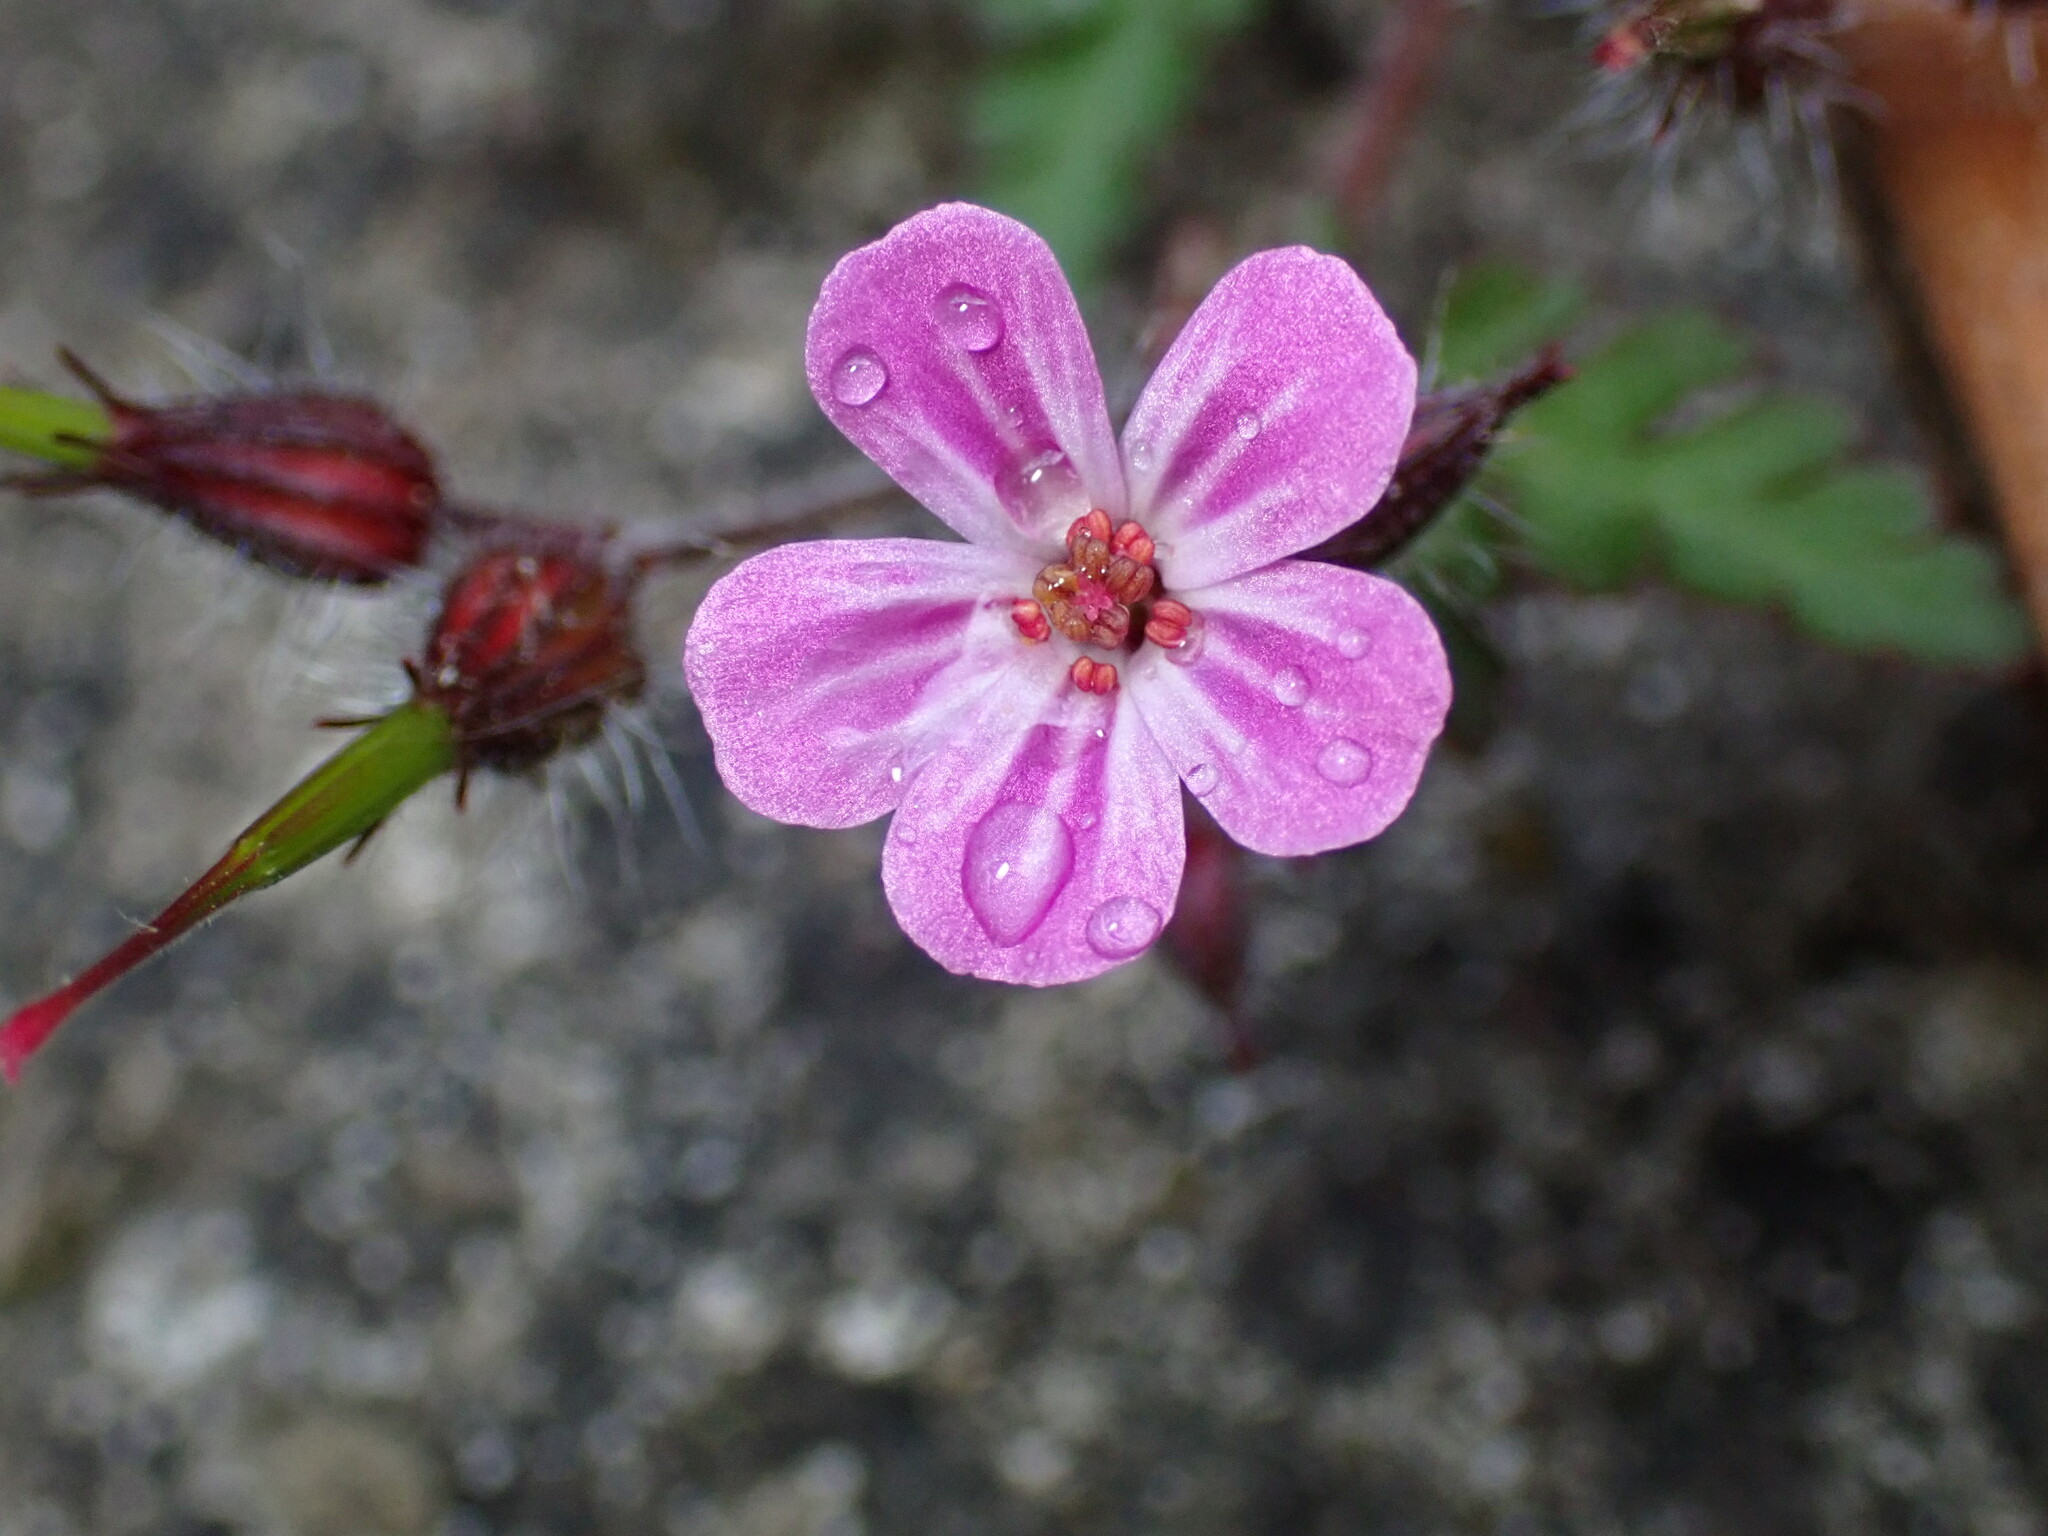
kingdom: Plantae
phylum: Tracheophyta
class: Magnoliopsida
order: Geraniales
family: Geraniaceae
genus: Geranium
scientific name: Geranium robertianum
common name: Herb-robert
